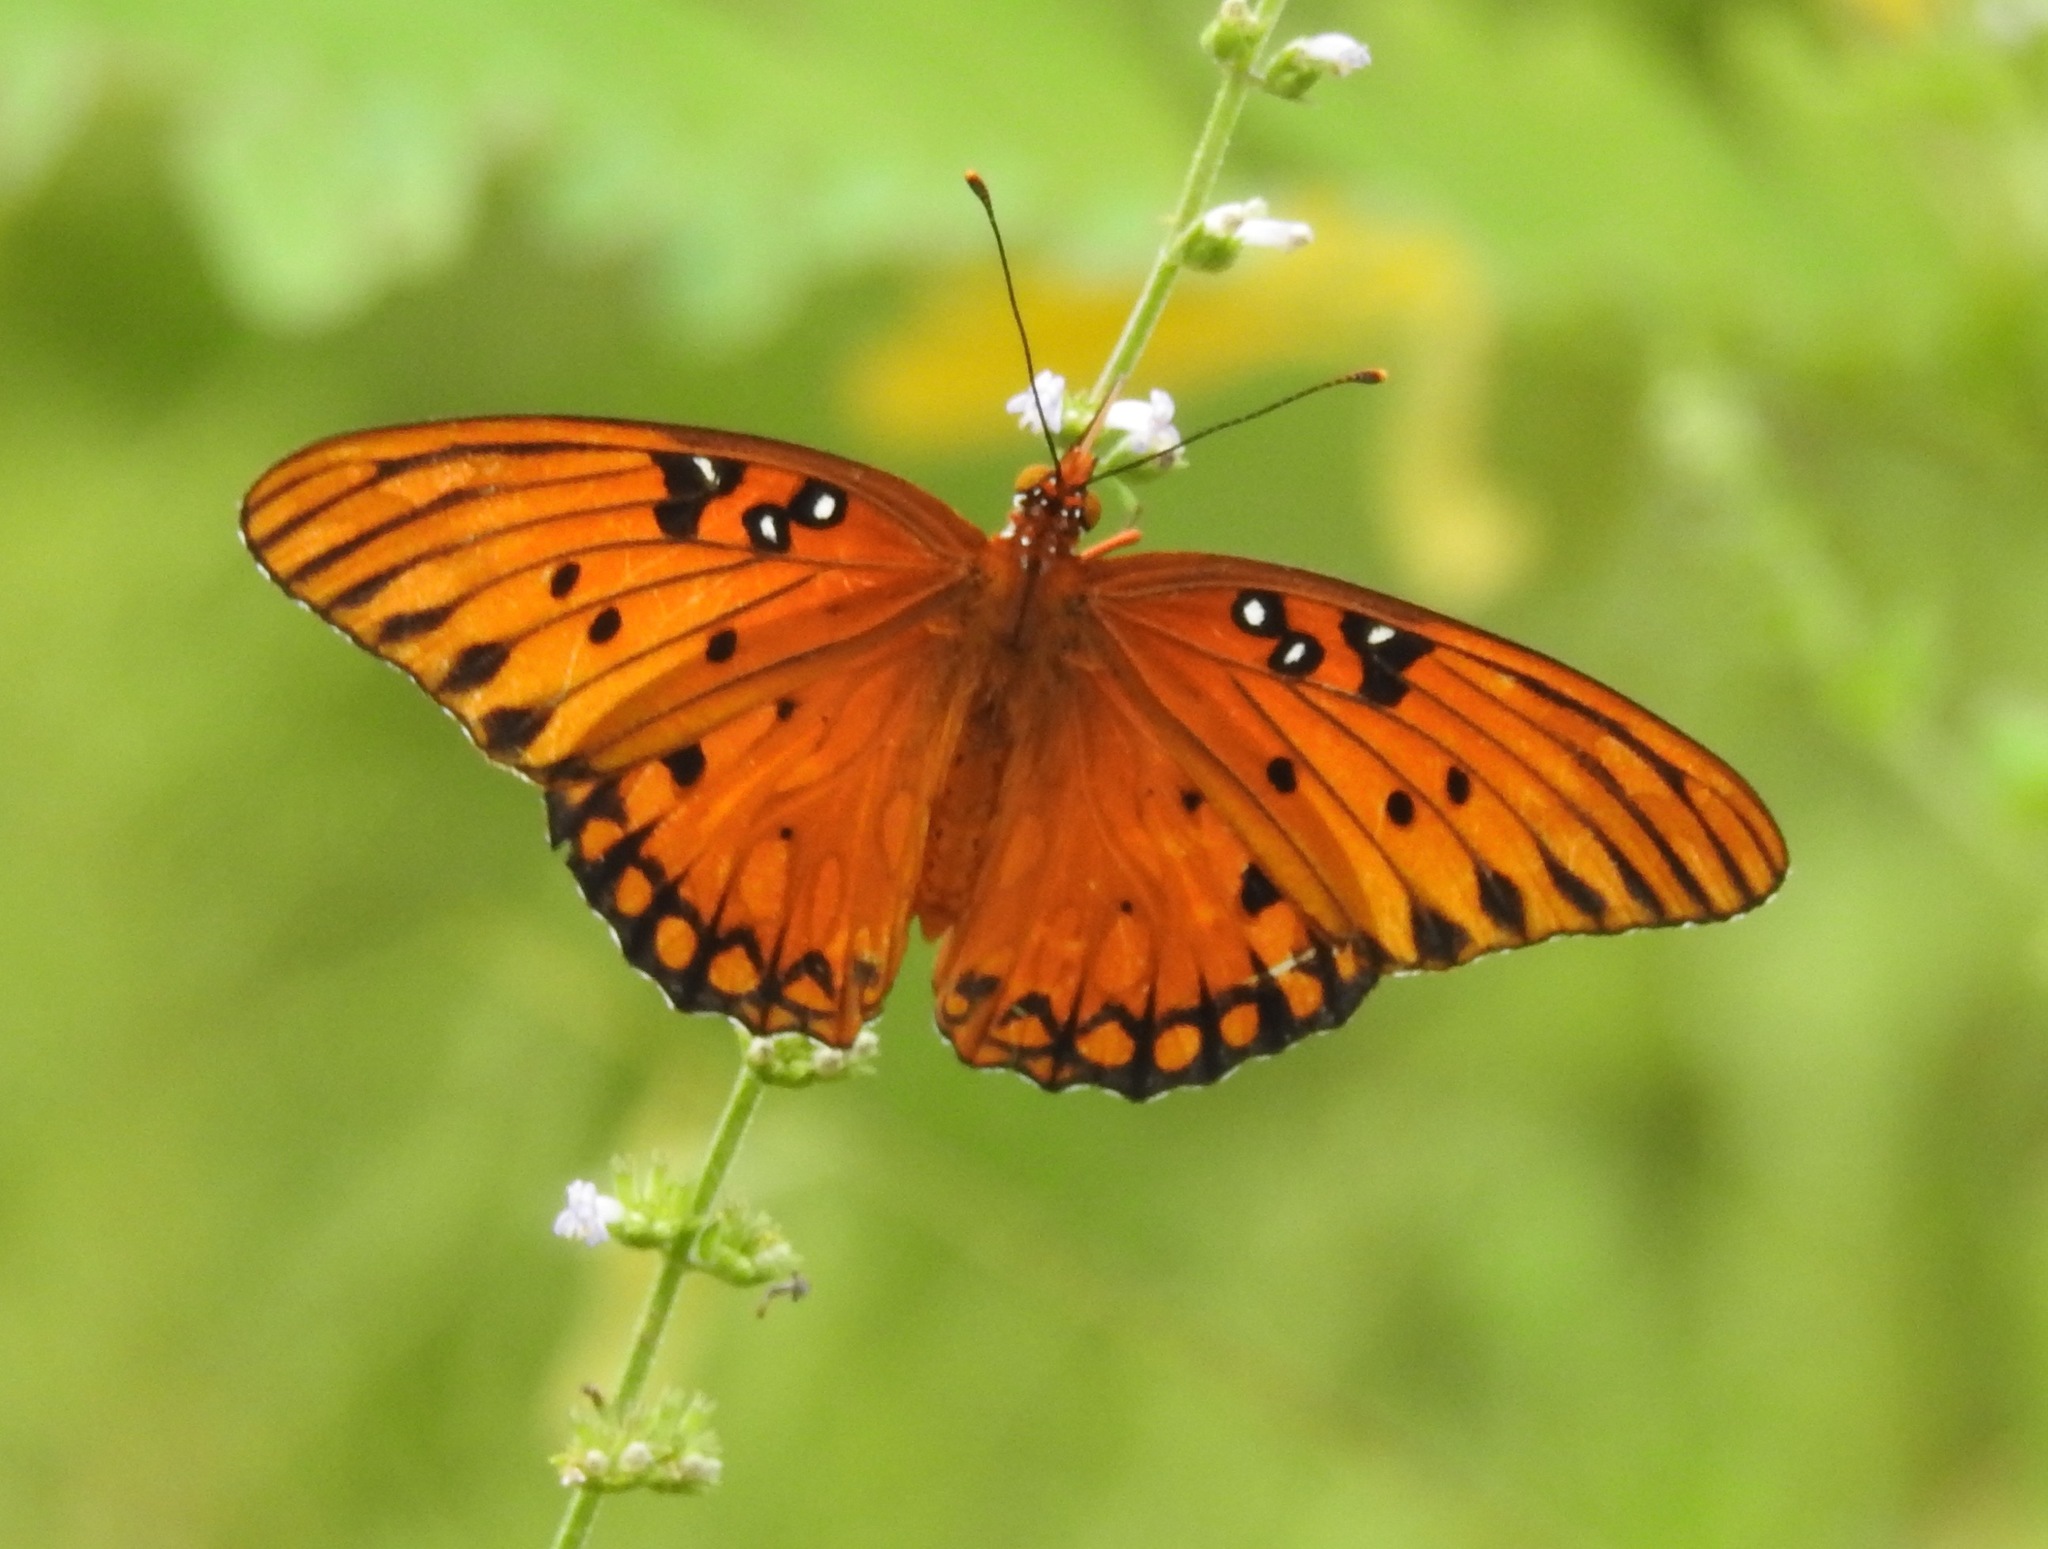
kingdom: Animalia
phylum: Arthropoda
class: Insecta
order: Lepidoptera
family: Nymphalidae
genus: Dione
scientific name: Dione vanillae
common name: Gulf fritillary
